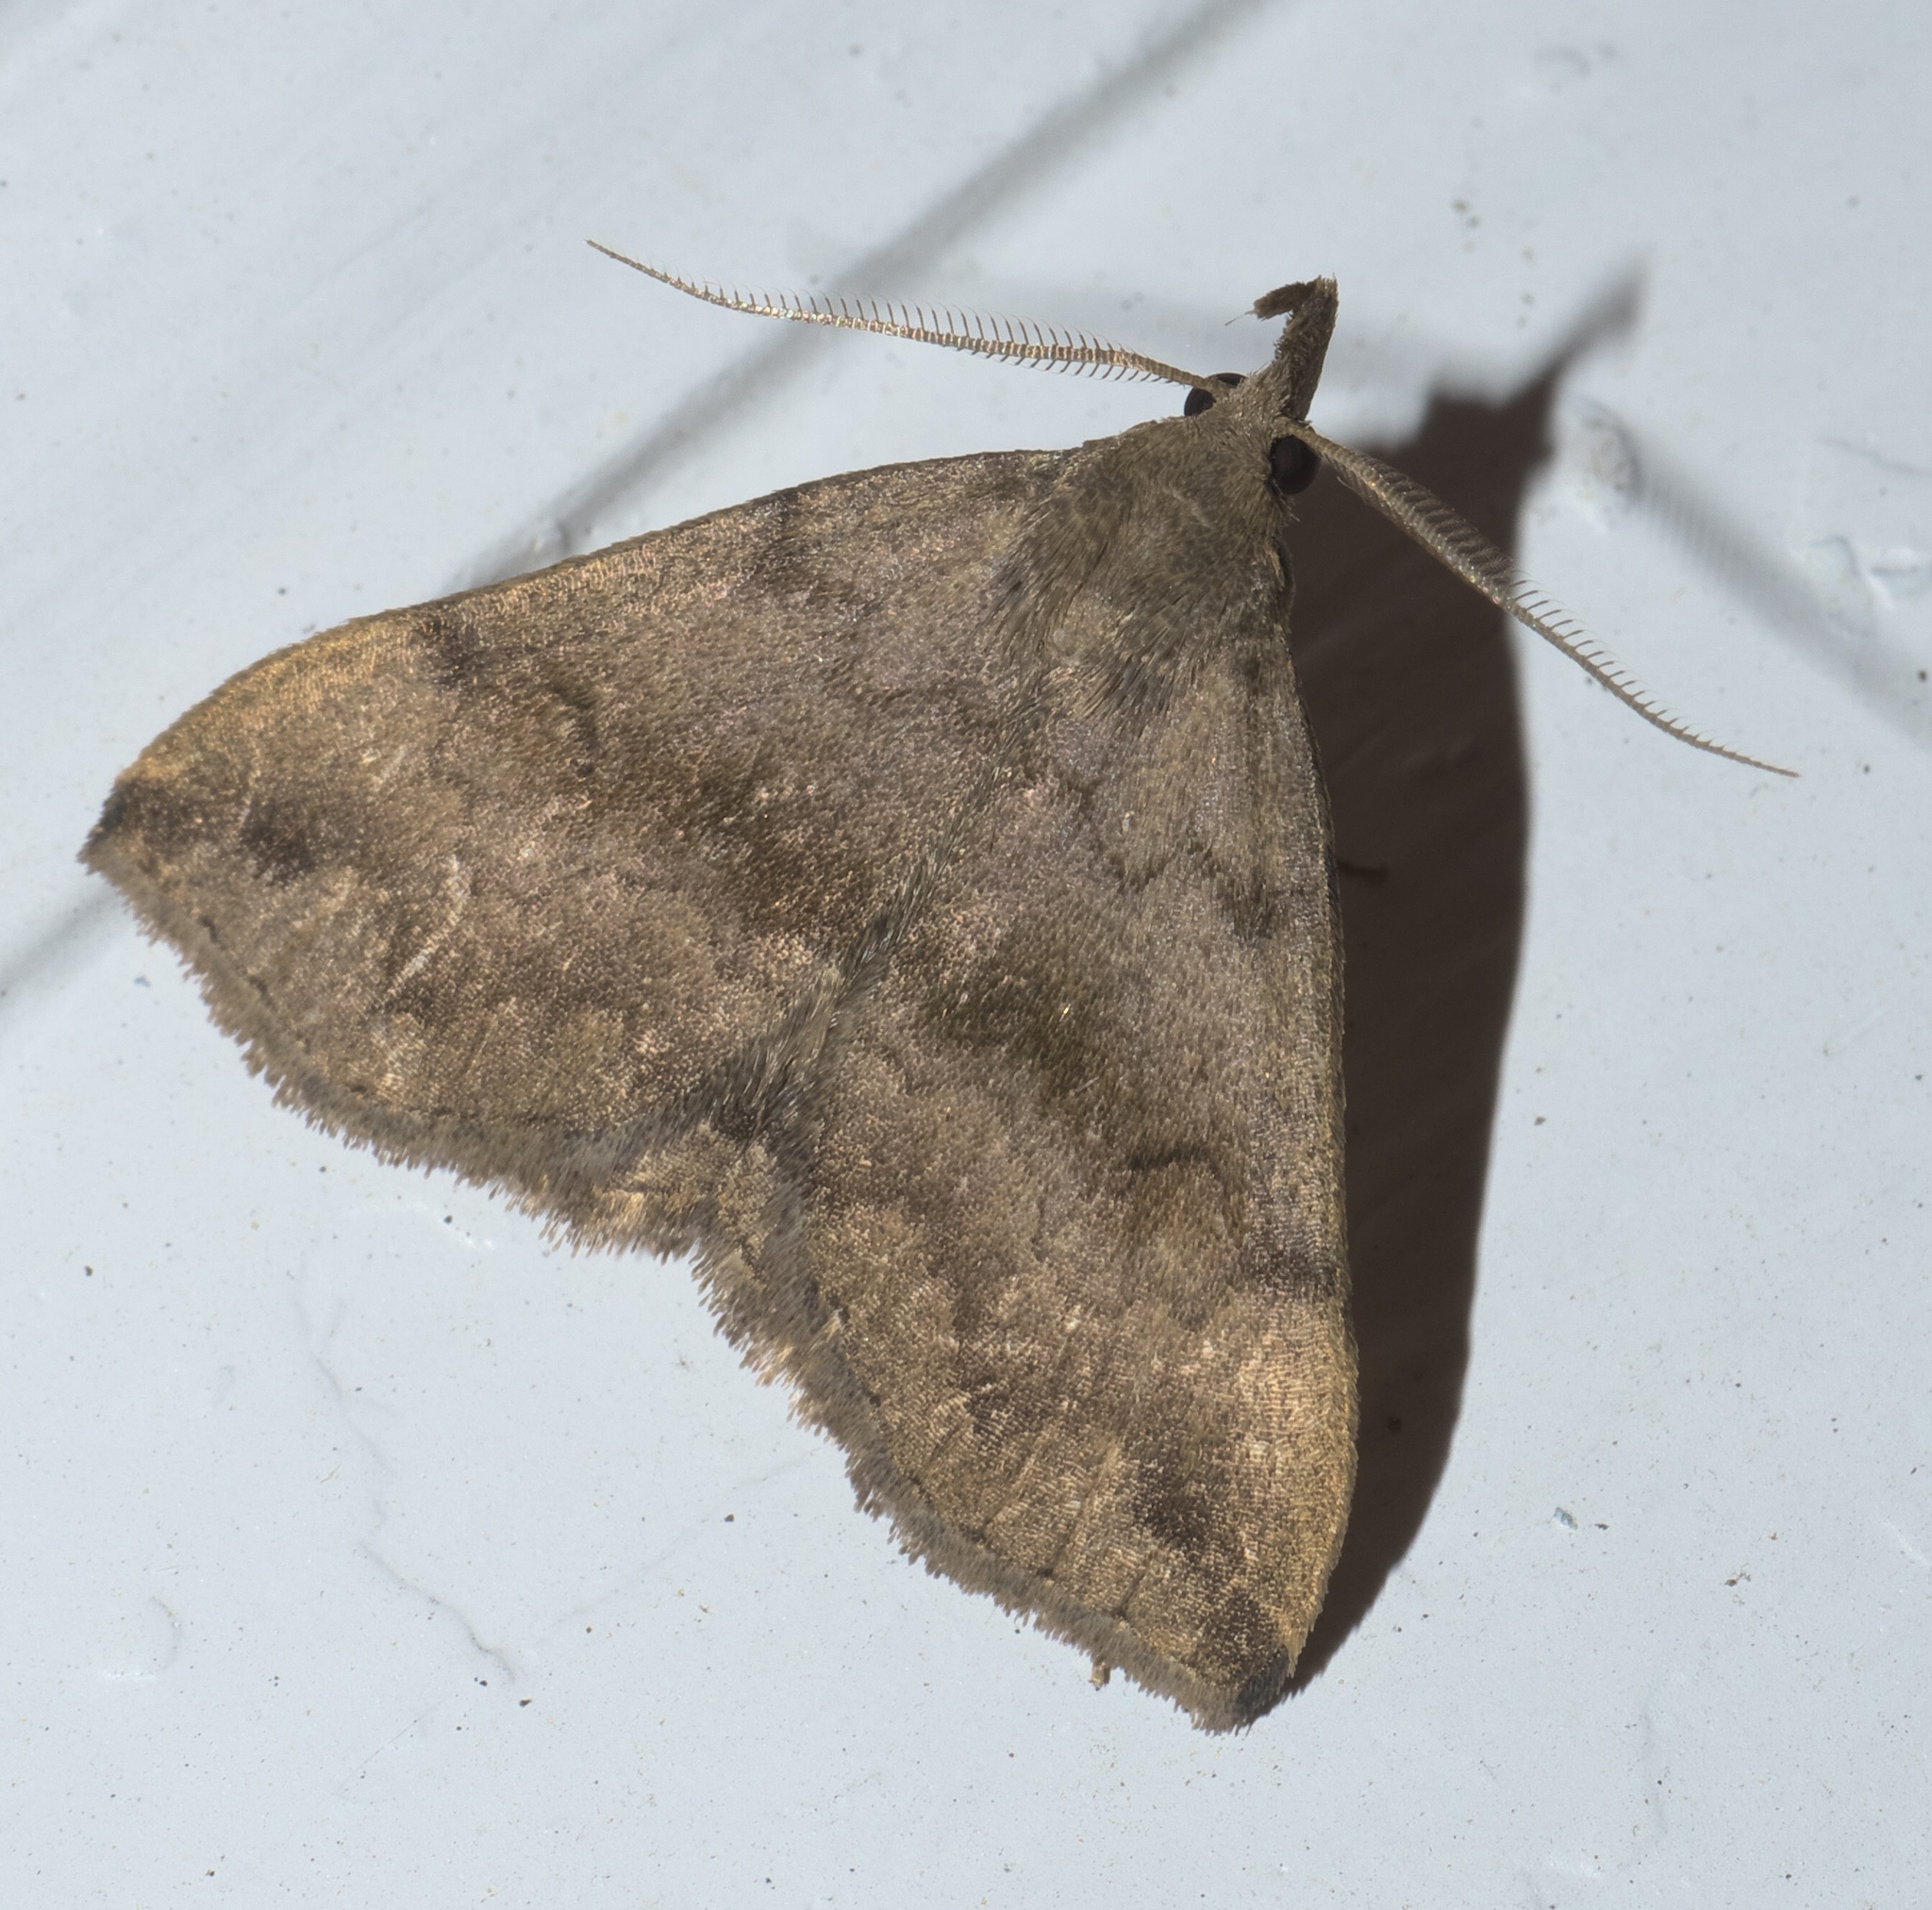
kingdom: Animalia
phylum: Arthropoda
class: Insecta
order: Lepidoptera
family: Erebidae
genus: Phalaenostola
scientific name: Phalaenostola eumelusalis
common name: Dark phalaenostola moth
